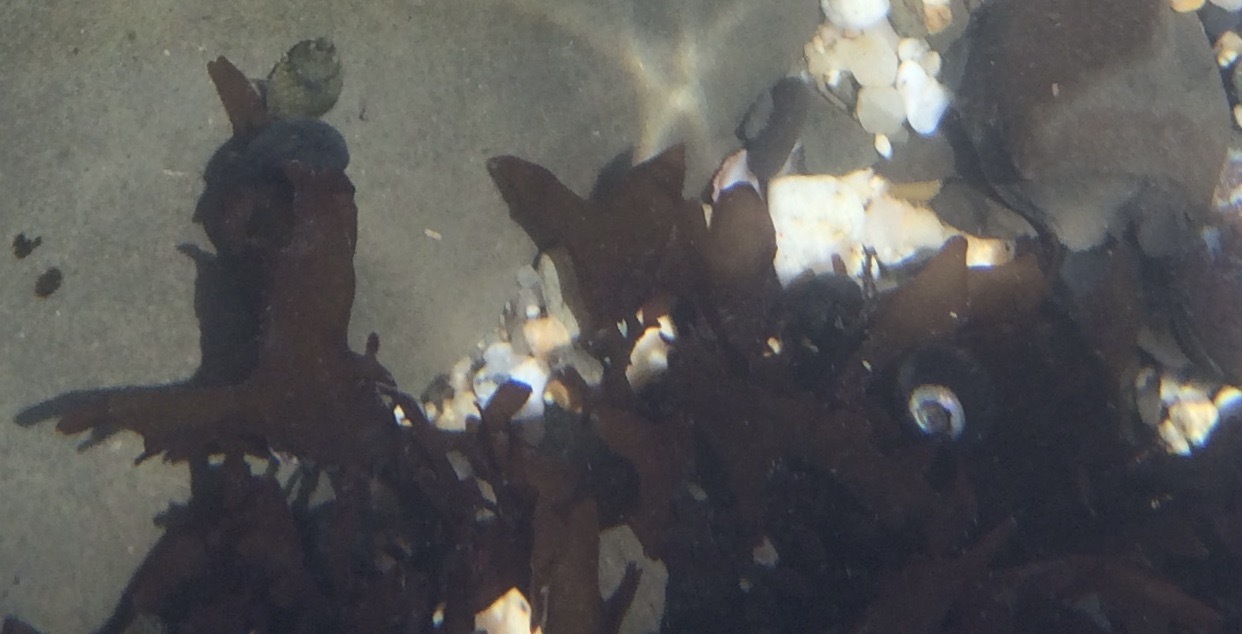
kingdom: Plantae
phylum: Rhodophyta
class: Florideophyceae
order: Gigartinales
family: Phyllophoraceae
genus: Mastocarpus
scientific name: Mastocarpus papillatus
